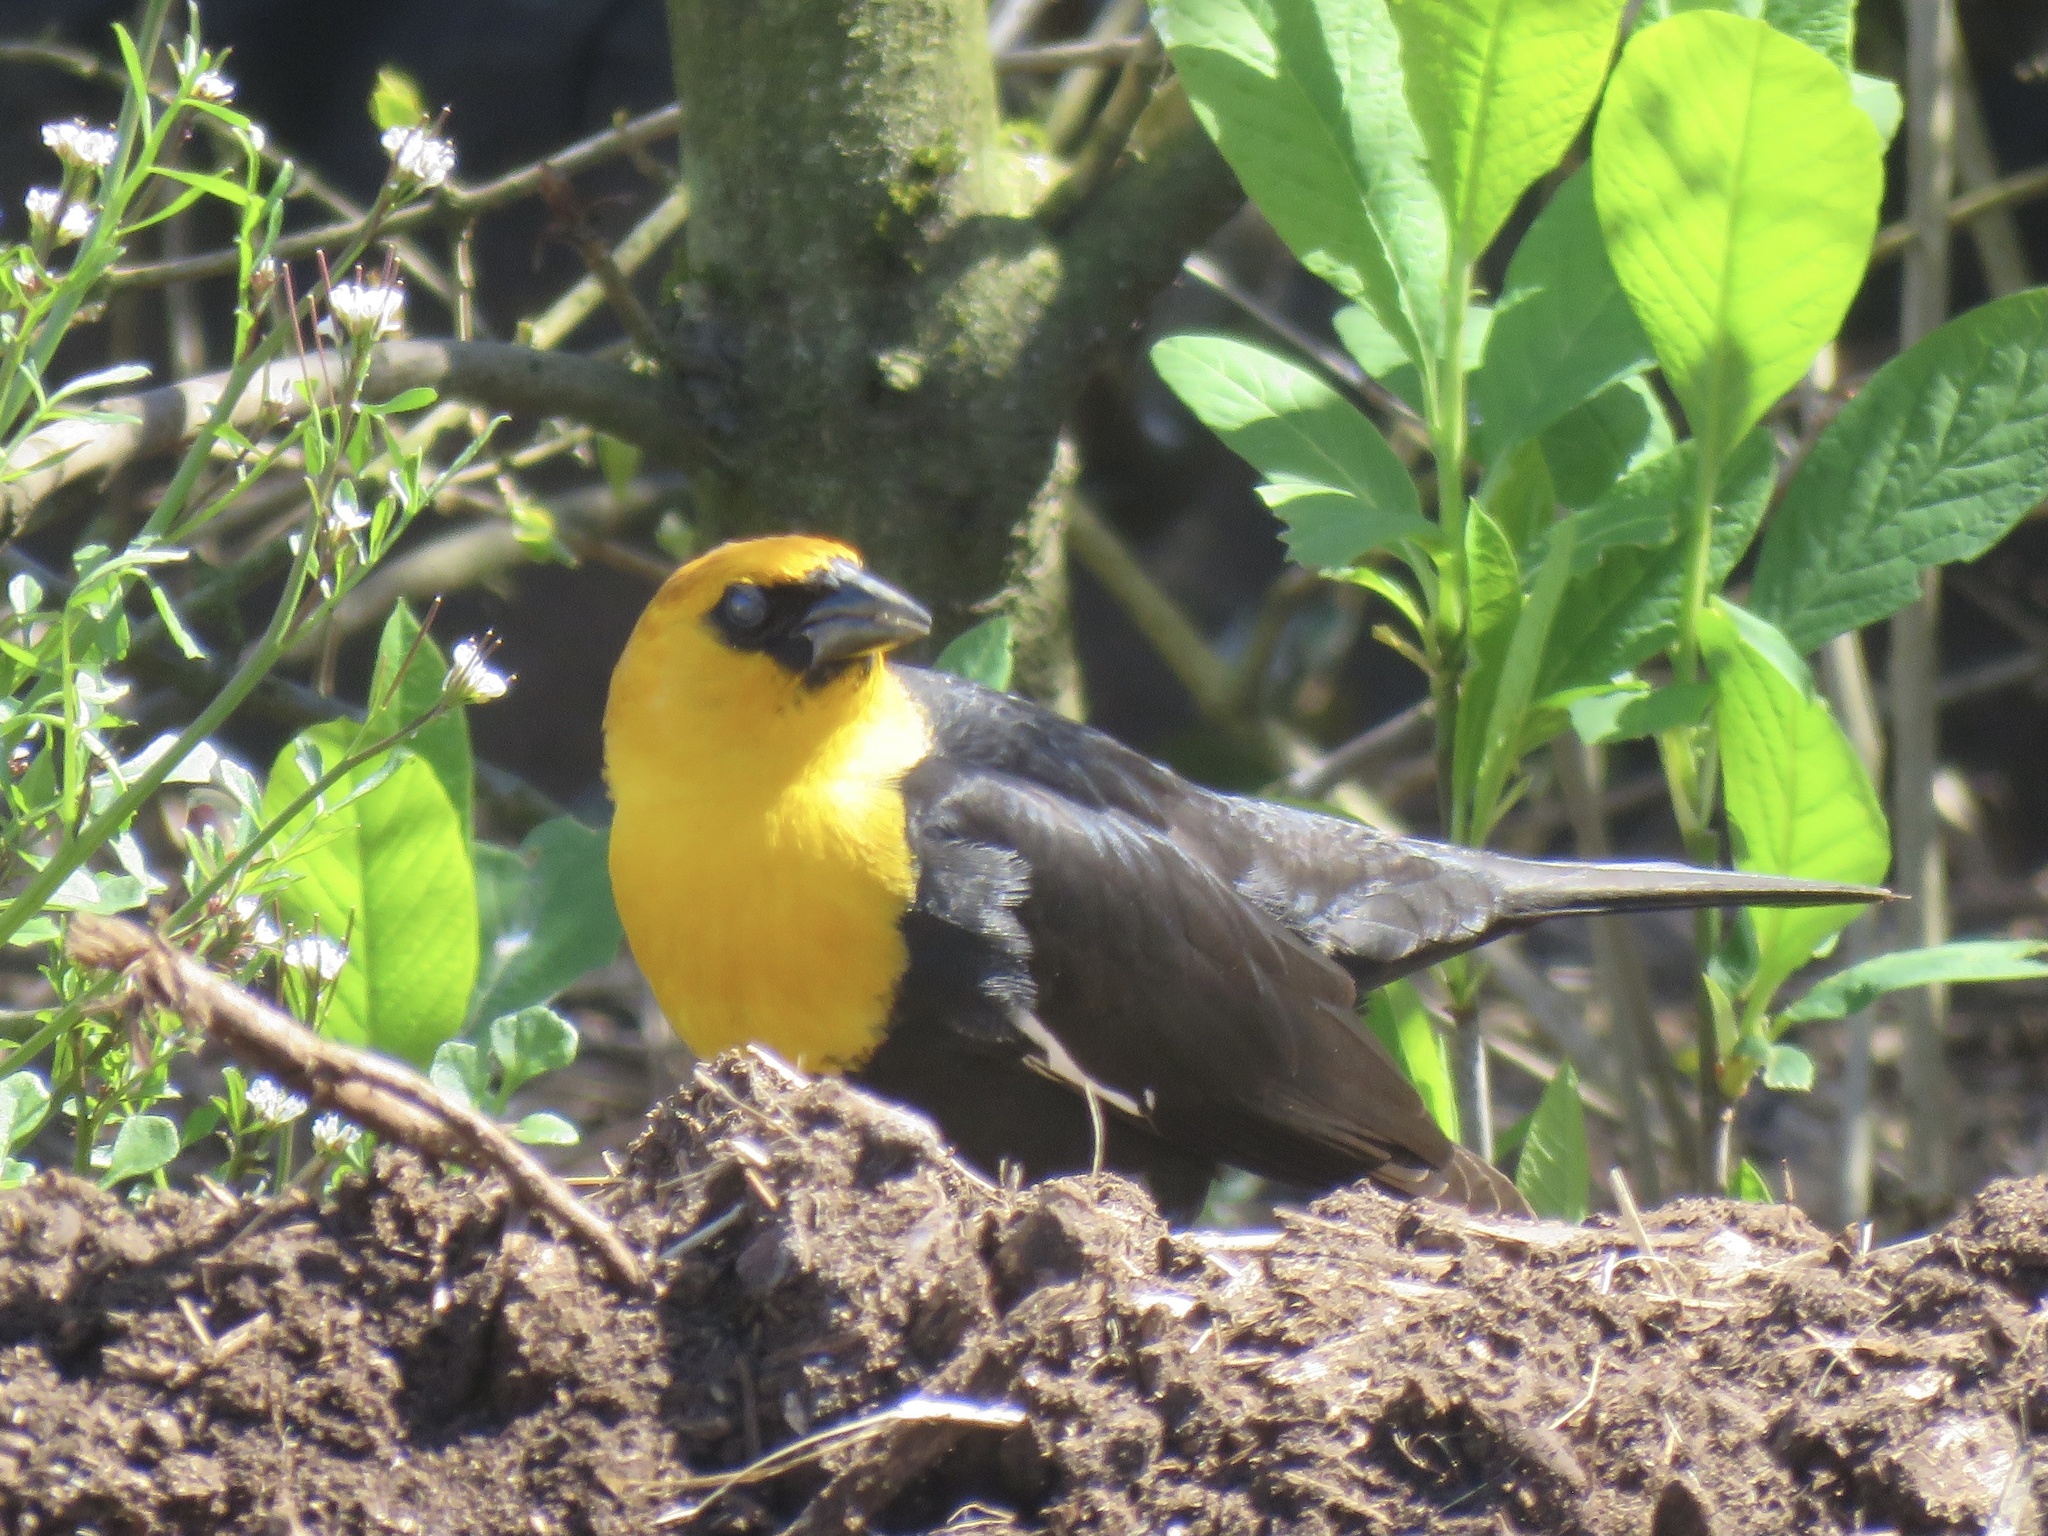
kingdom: Animalia
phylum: Chordata
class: Aves
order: Passeriformes
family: Icteridae
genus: Xanthocephalus
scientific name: Xanthocephalus xanthocephalus
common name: Yellow-headed blackbird
